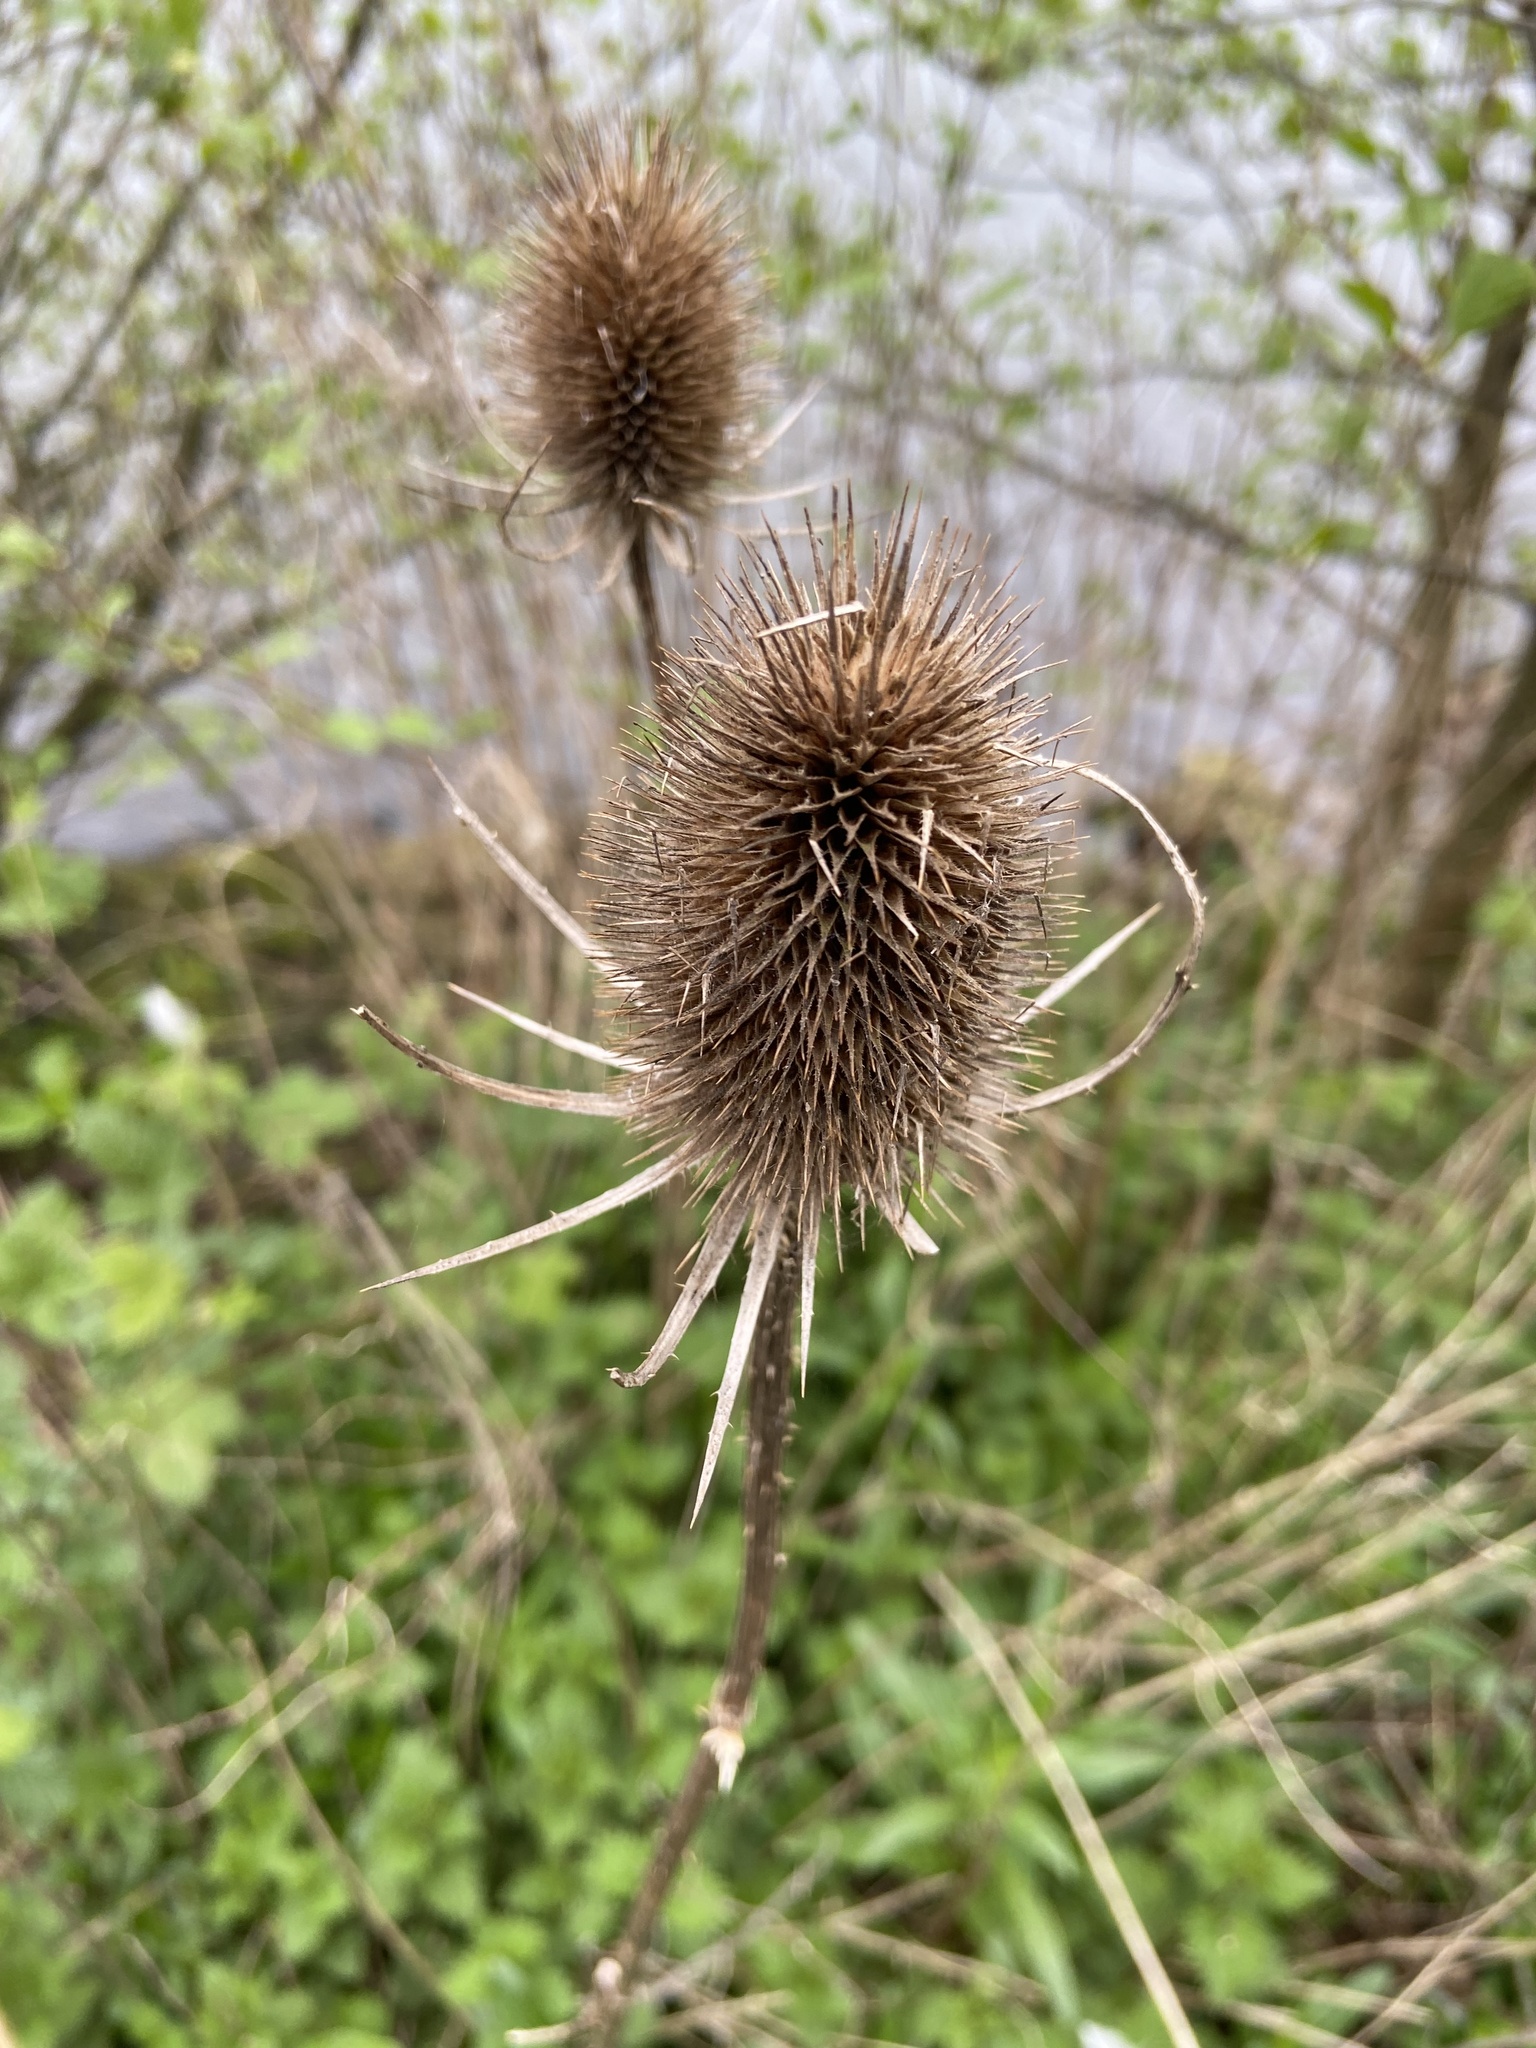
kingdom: Plantae
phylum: Tracheophyta
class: Magnoliopsida
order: Dipsacales
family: Caprifoliaceae
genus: Dipsacus
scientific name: Dipsacus fullonum
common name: Teasel
